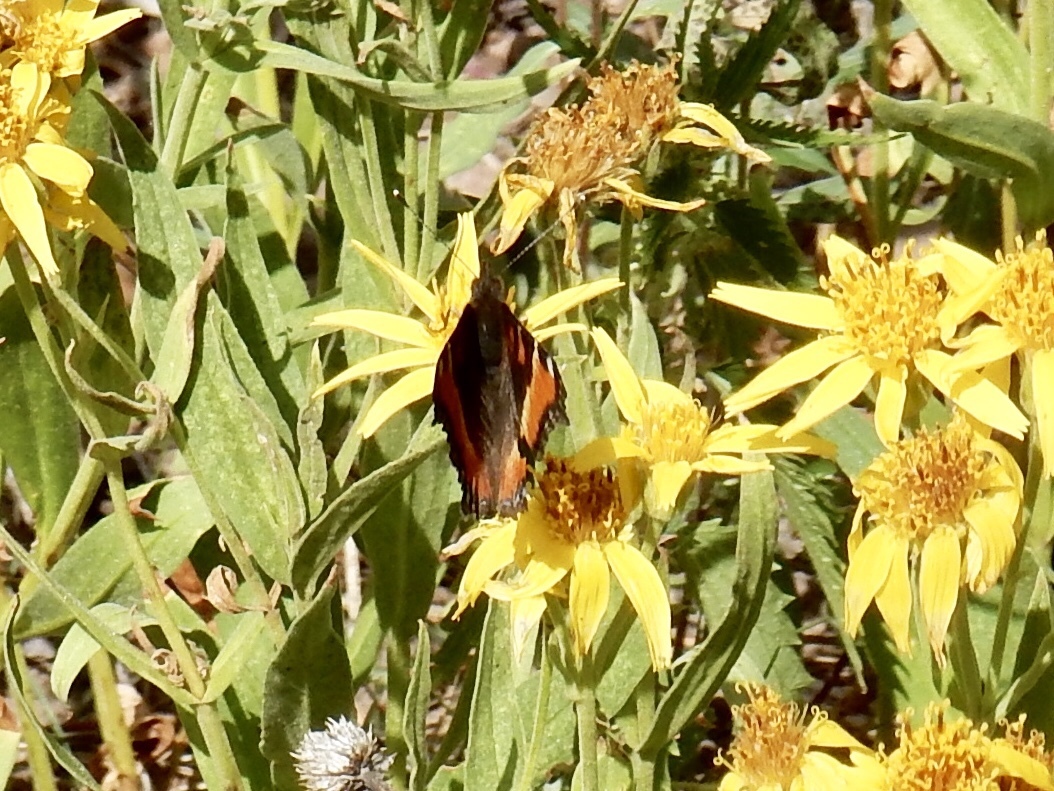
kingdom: Animalia
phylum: Arthropoda
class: Insecta
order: Lepidoptera
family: Nymphalidae
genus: Aglais
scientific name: Aglais milberti
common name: Milbert's tortoiseshell
